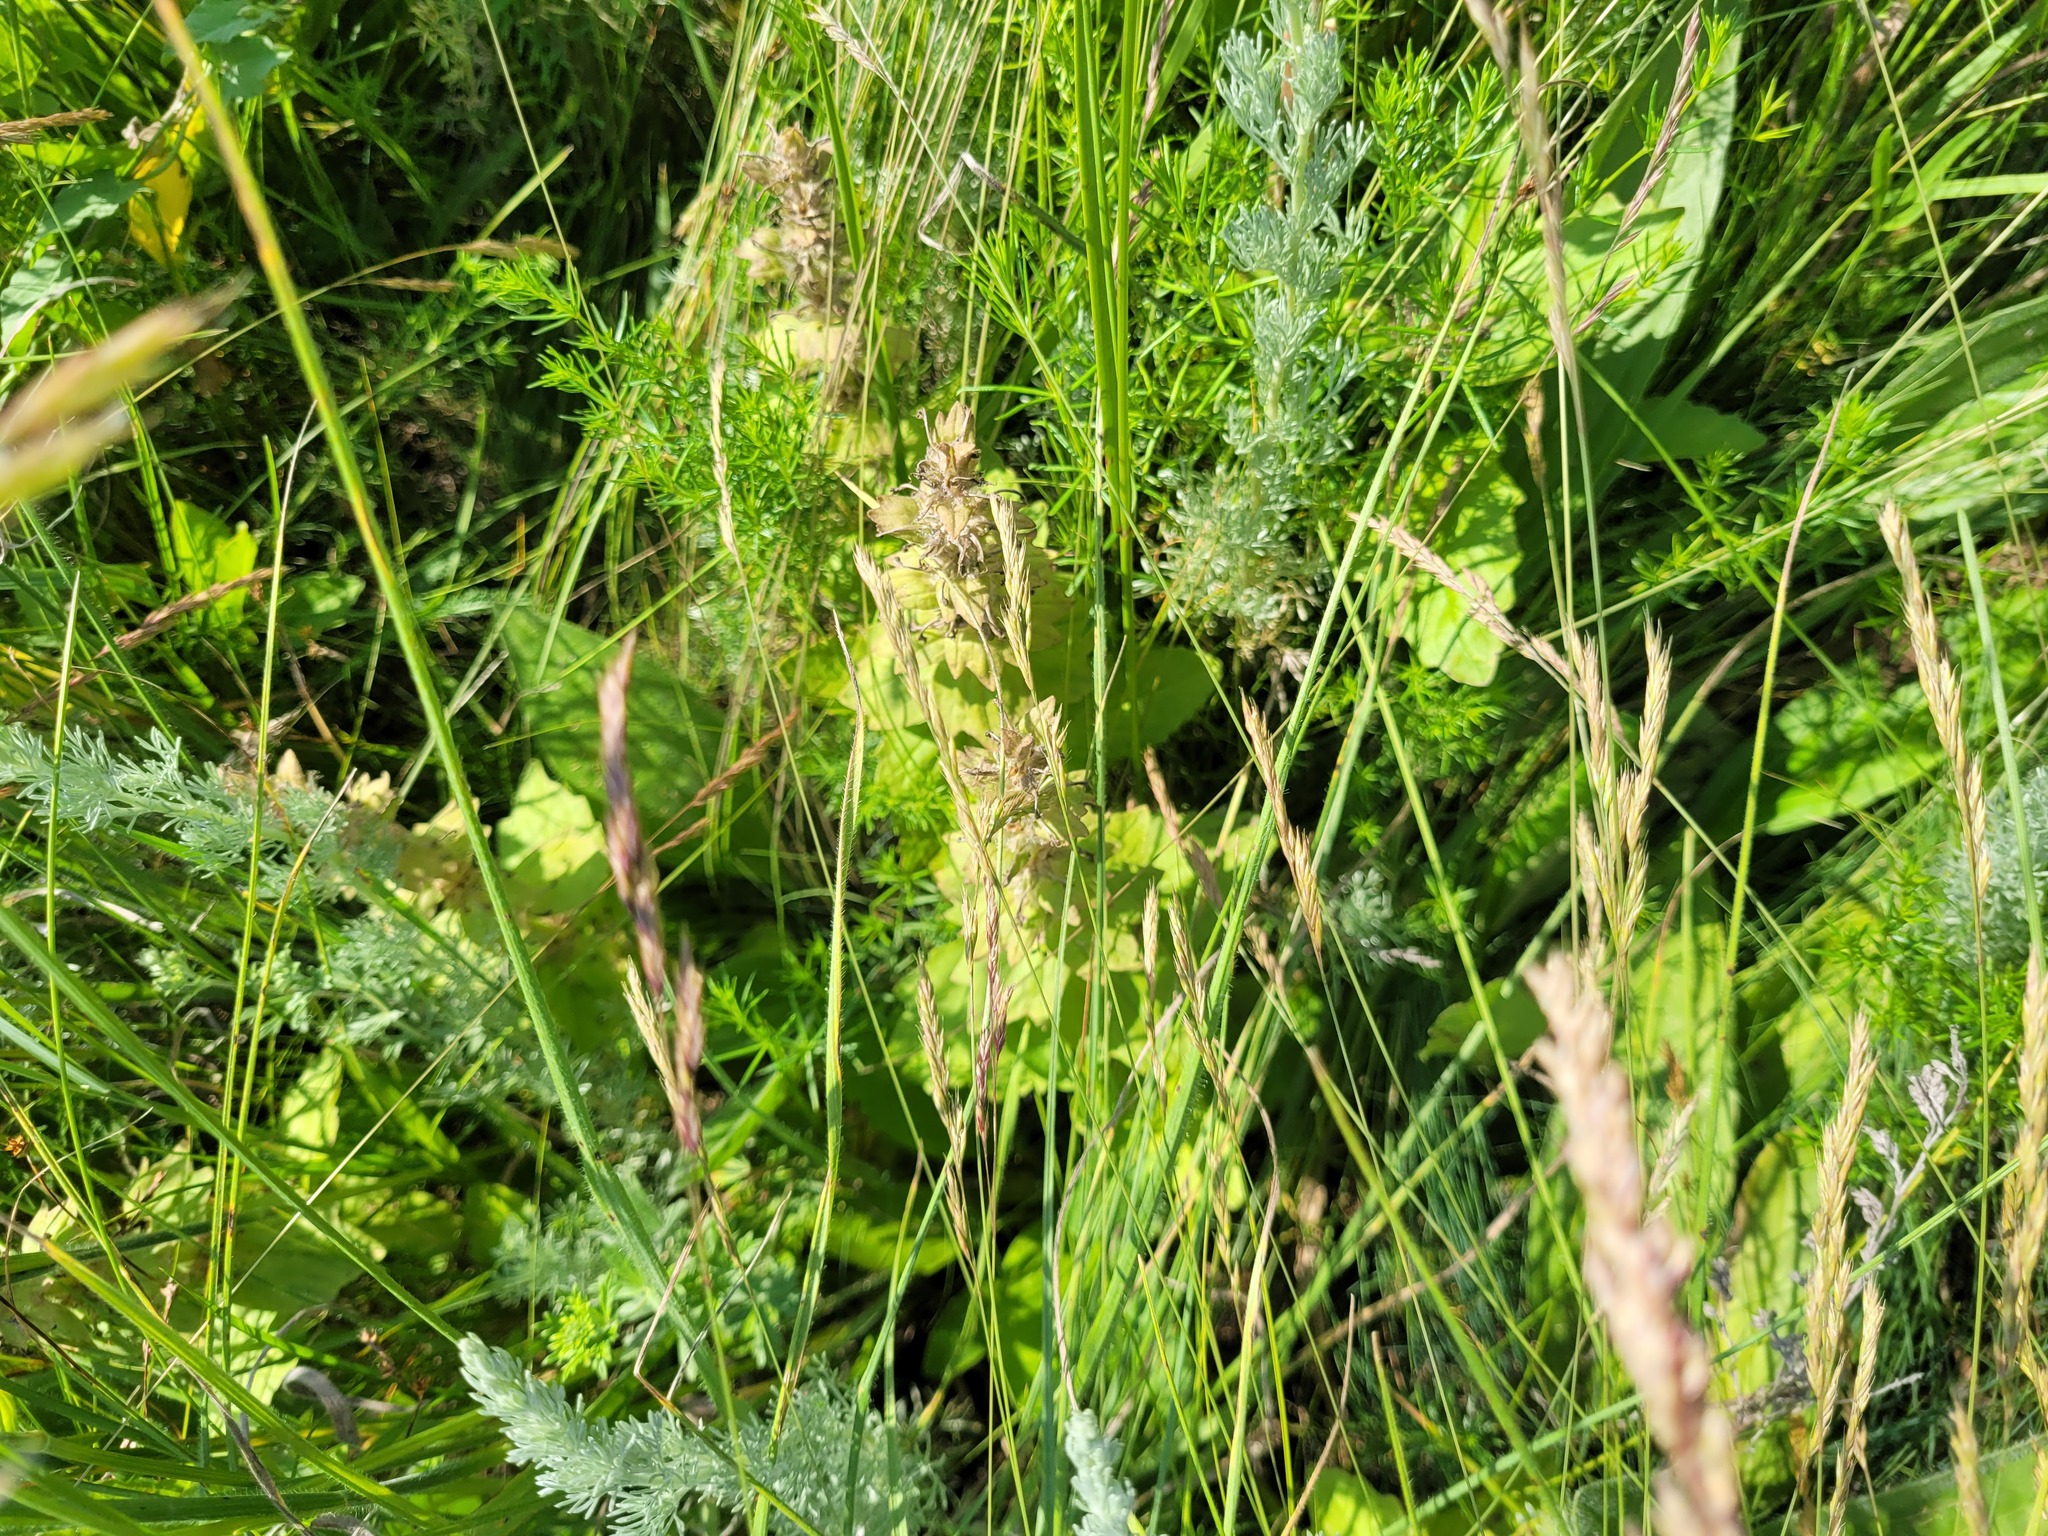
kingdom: Plantae
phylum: Tracheophyta
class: Magnoliopsida
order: Lamiales
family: Lamiaceae
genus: Ajuga
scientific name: Ajuga genevensis
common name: Blue bugle
